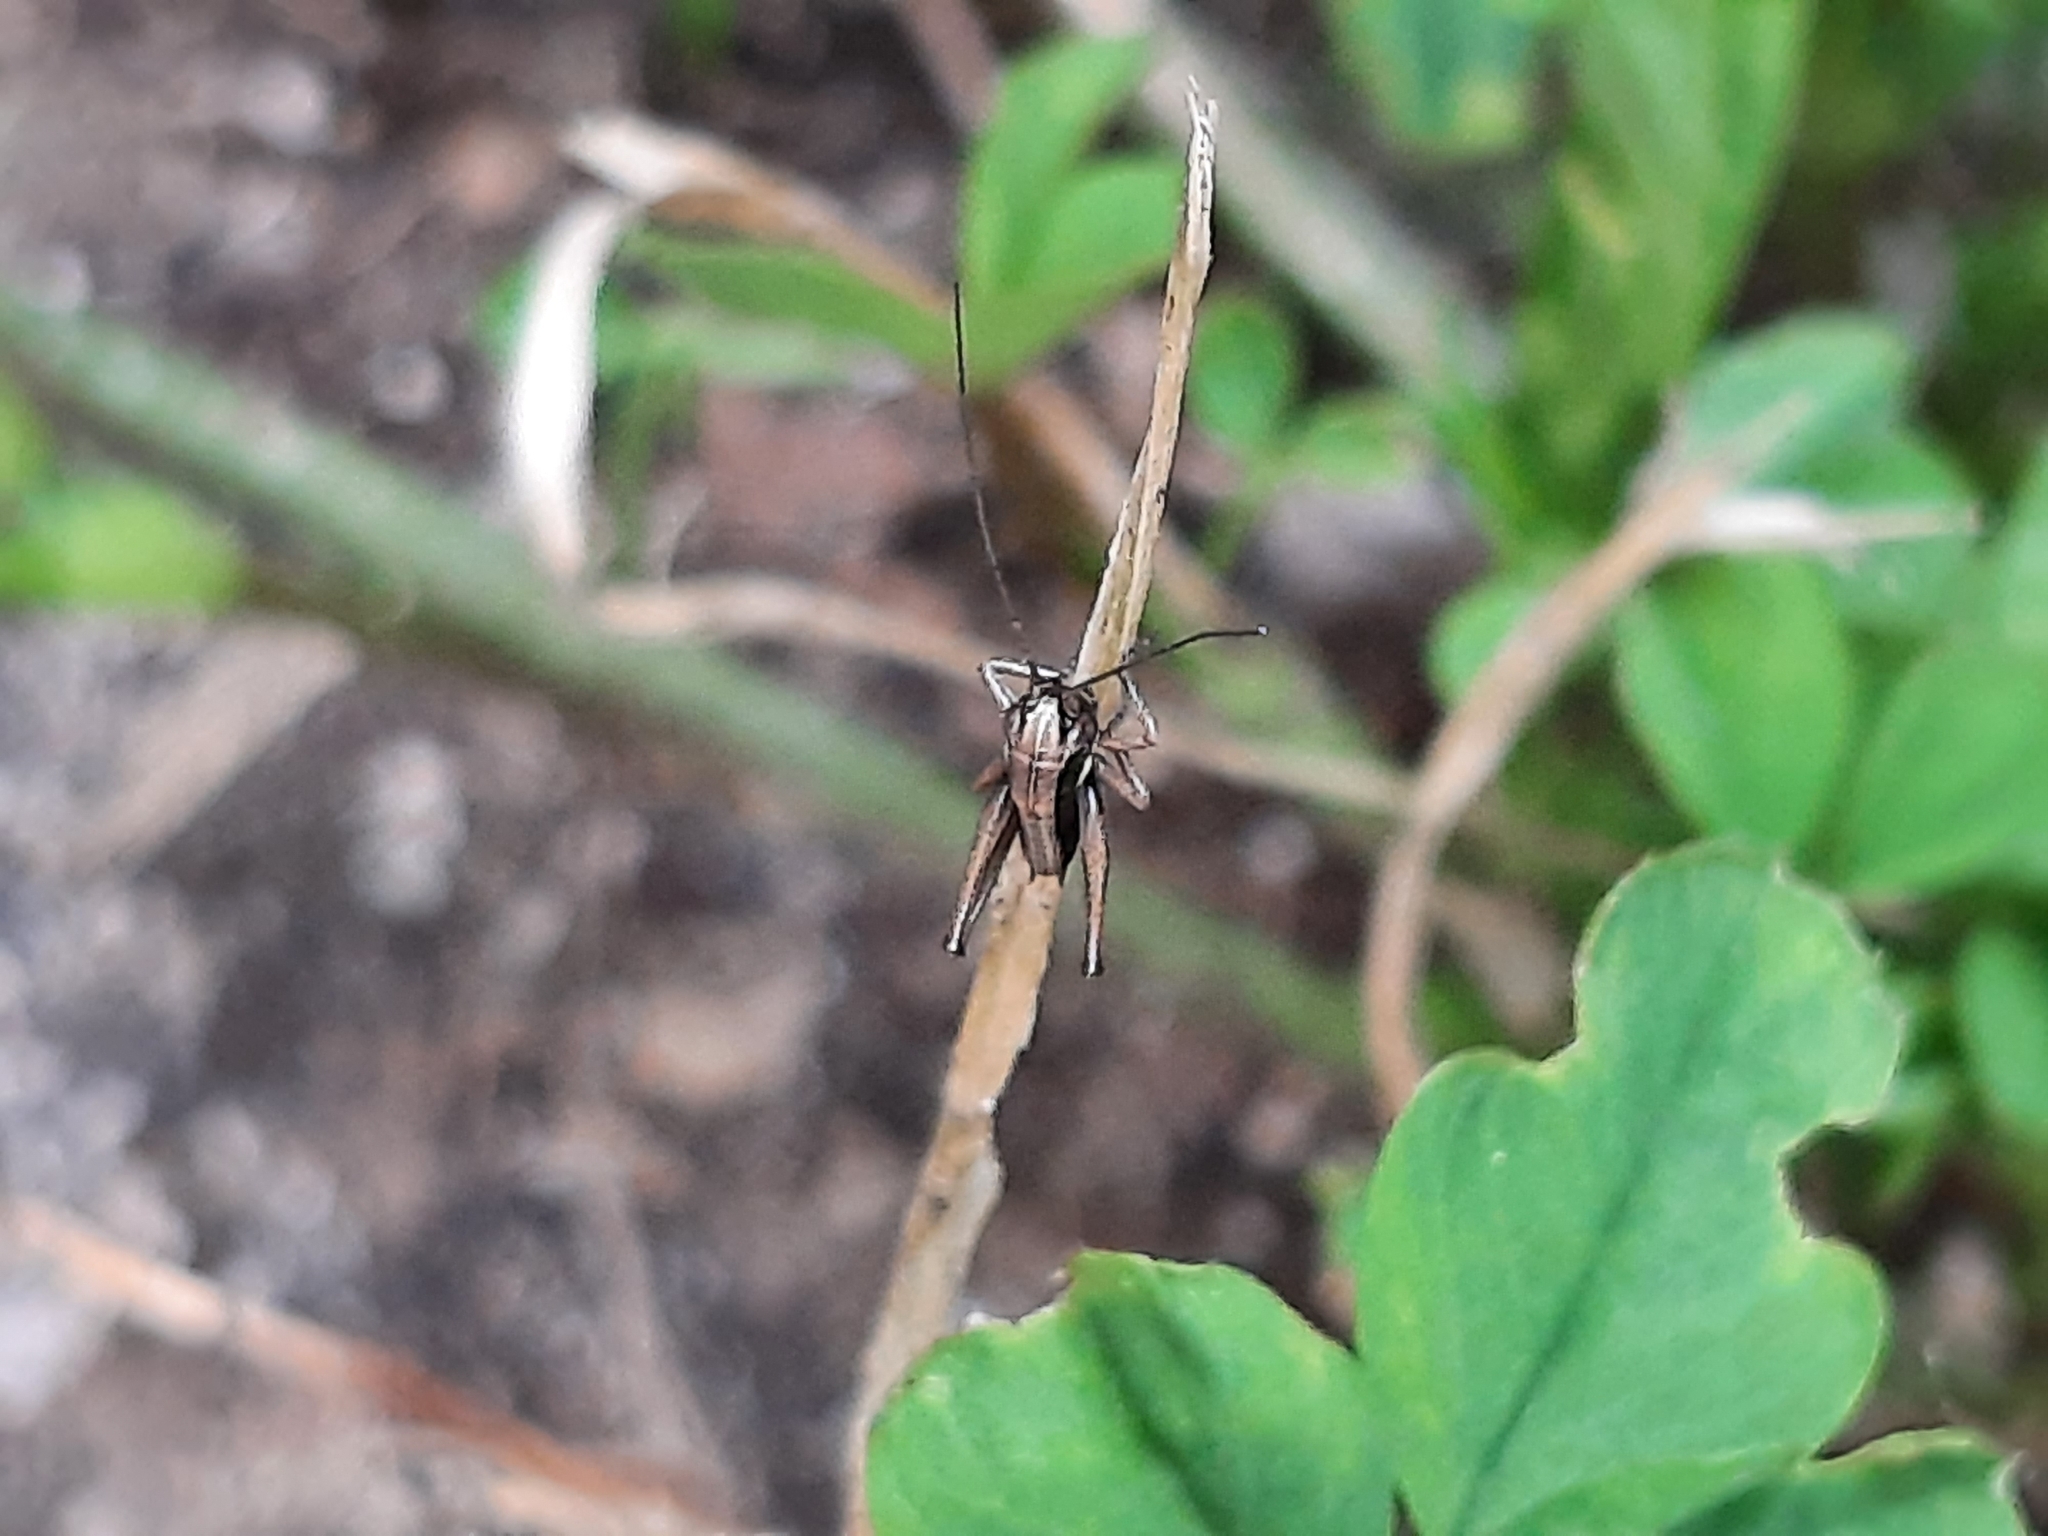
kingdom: Animalia
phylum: Arthropoda
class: Insecta
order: Orthoptera
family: Tettigoniidae
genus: Platycleis
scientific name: Platycleis grisea
